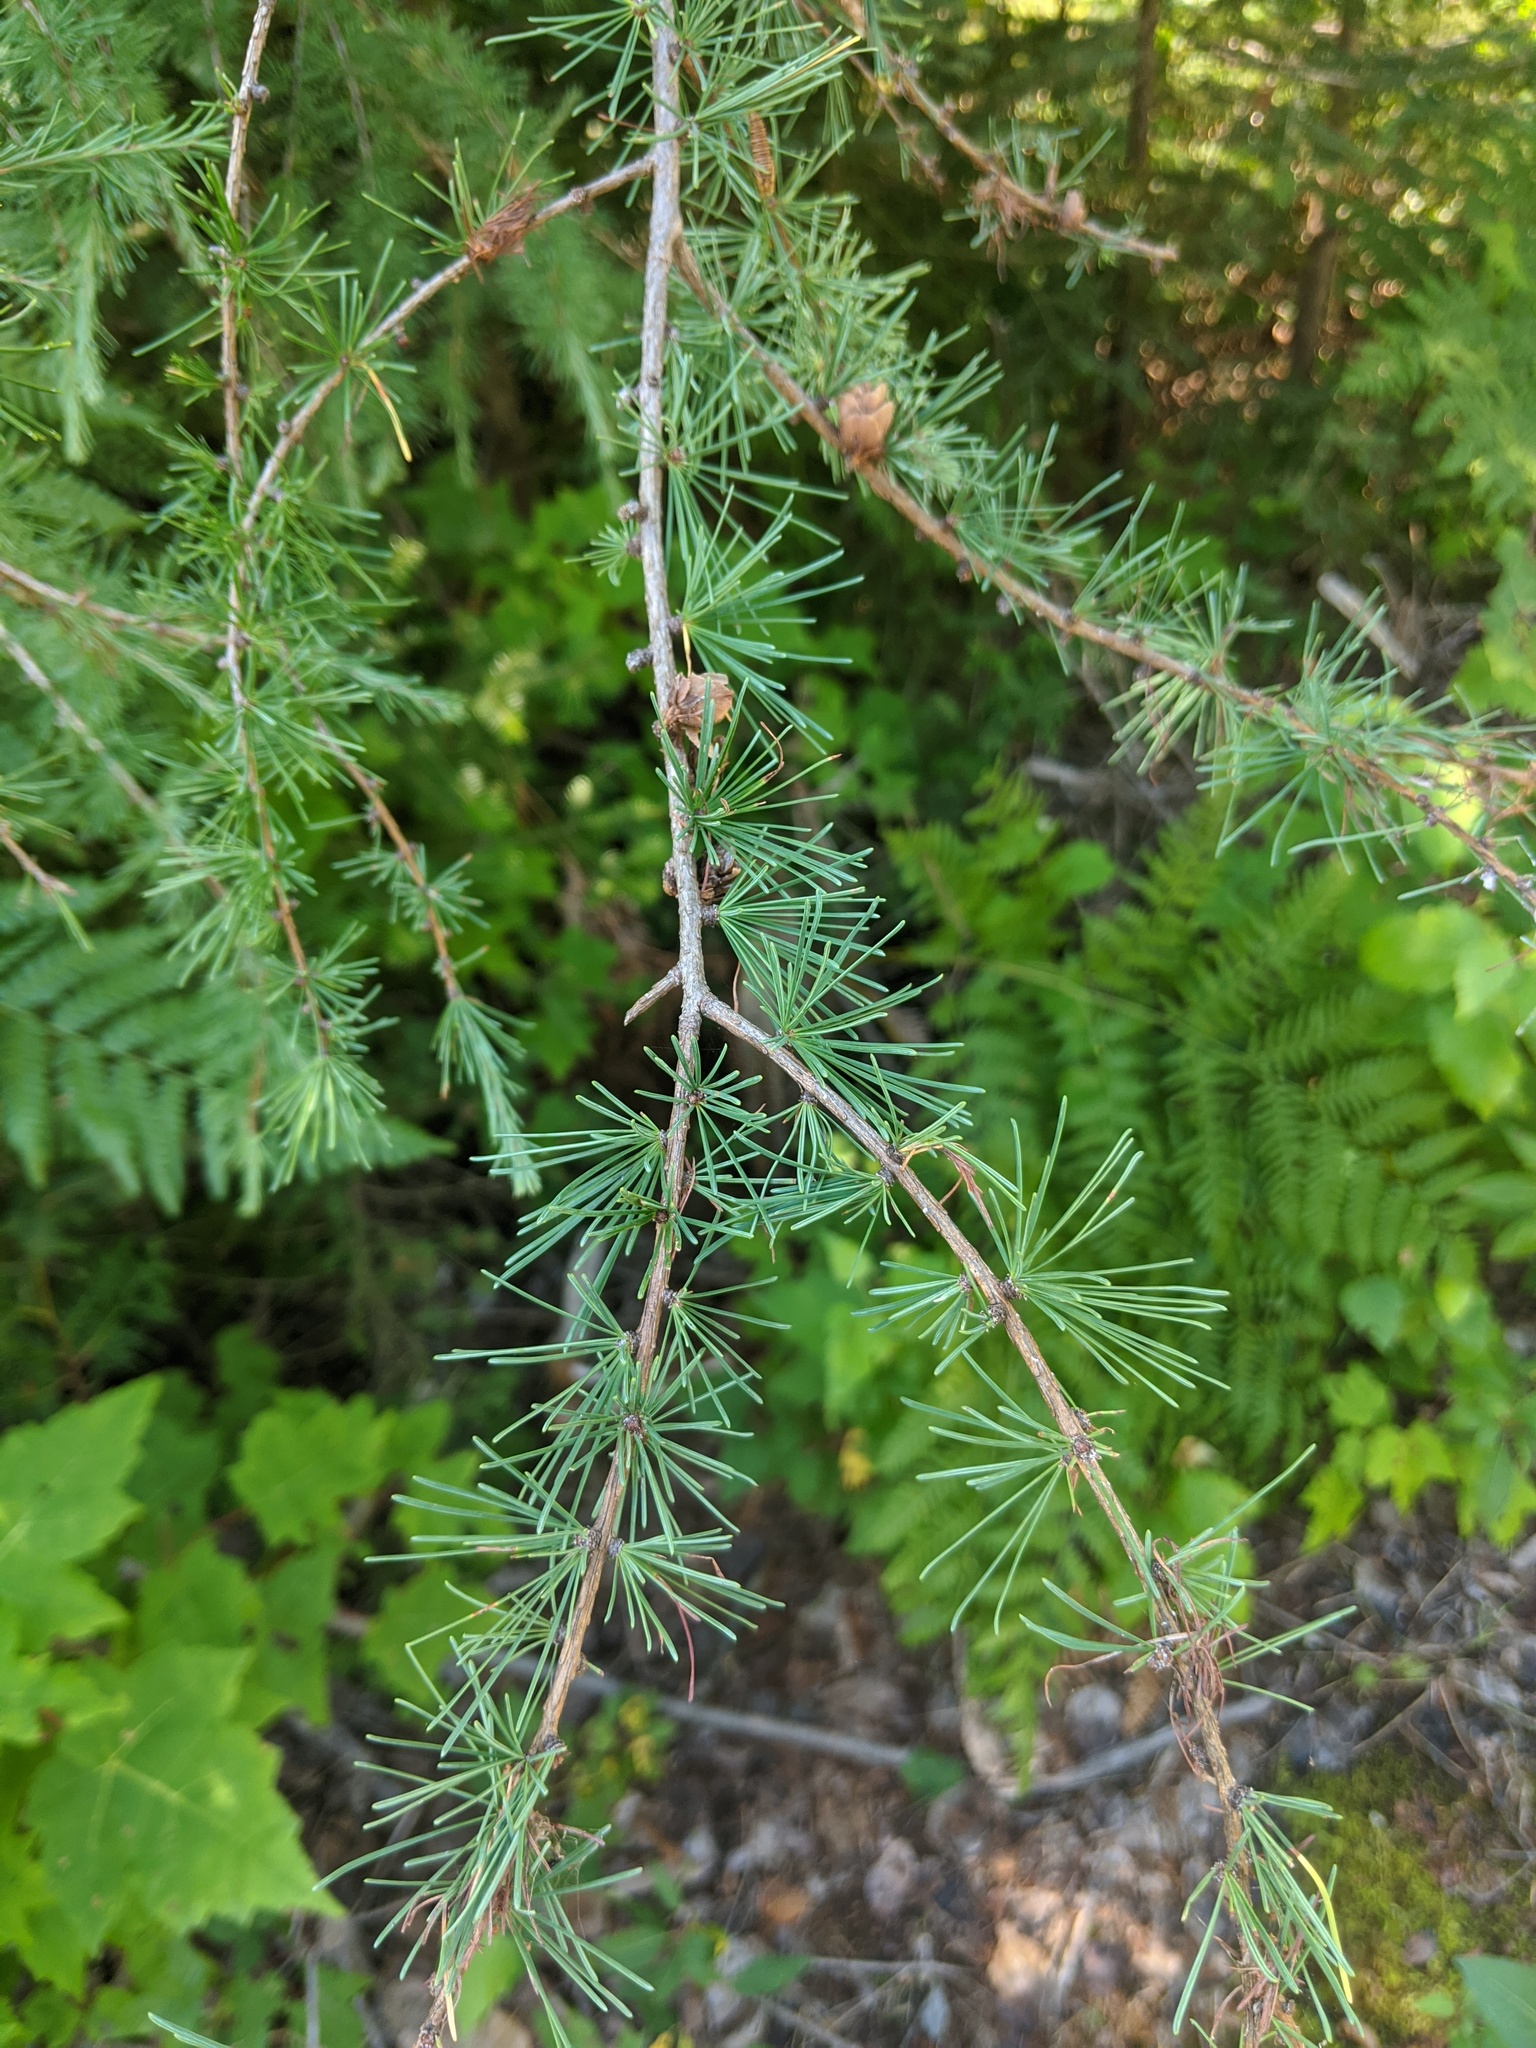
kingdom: Plantae
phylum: Tracheophyta
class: Pinopsida
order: Pinales
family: Pinaceae
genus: Larix
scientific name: Larix laricina
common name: American larch
